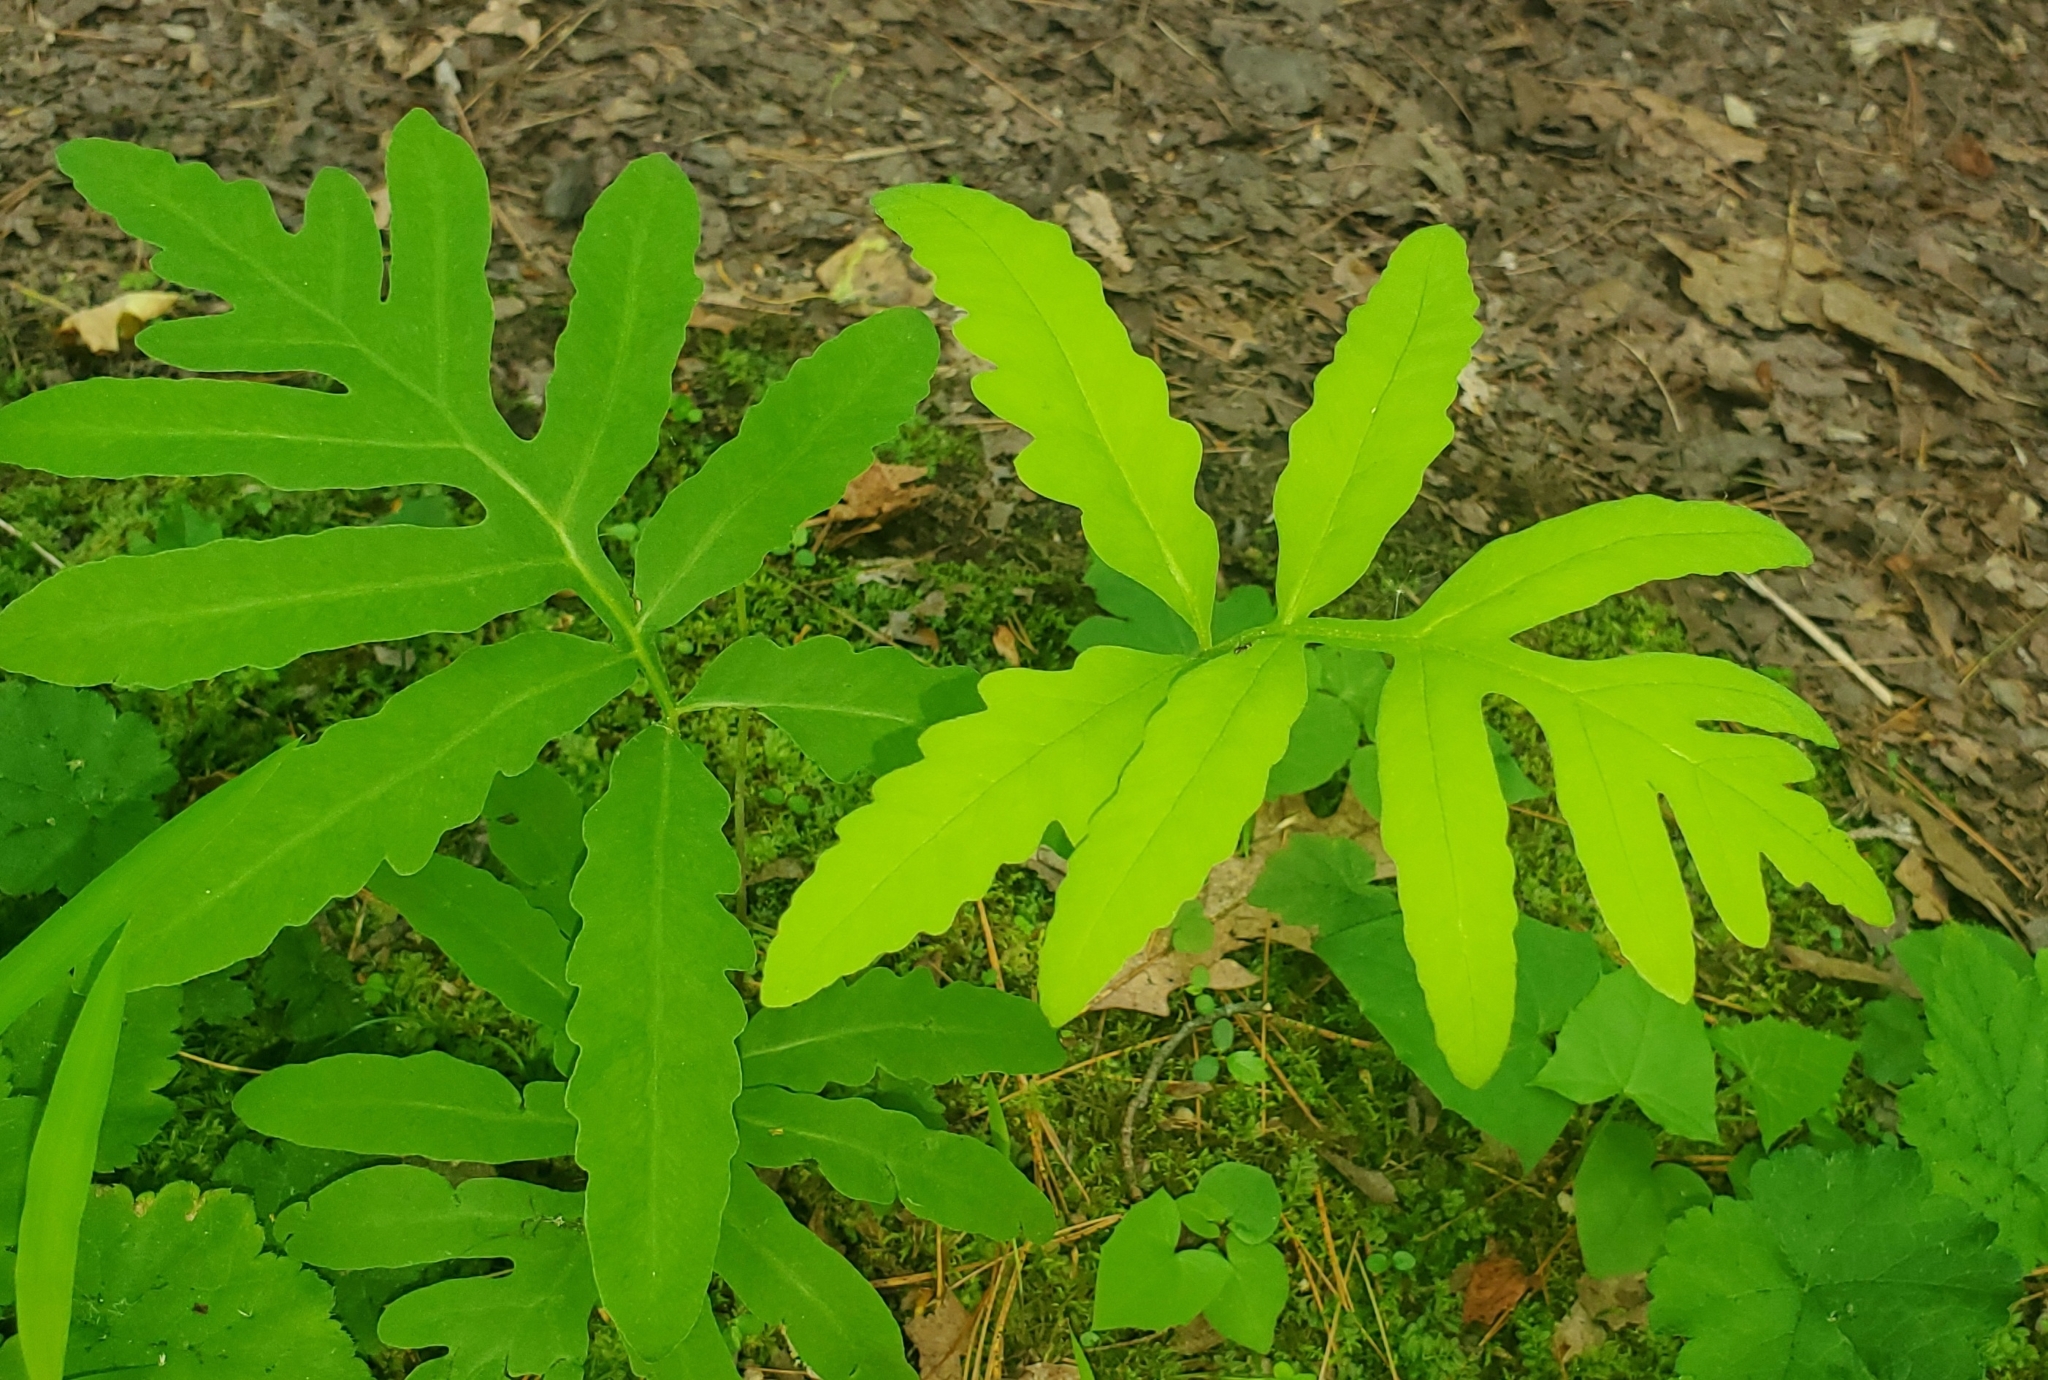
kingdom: Plantae
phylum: Tracheophyta
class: Polypodiopsida
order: Polypodiales
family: Onocleaceae
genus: Onoclea
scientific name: Onoclea sensibilis
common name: Sensitive fern
